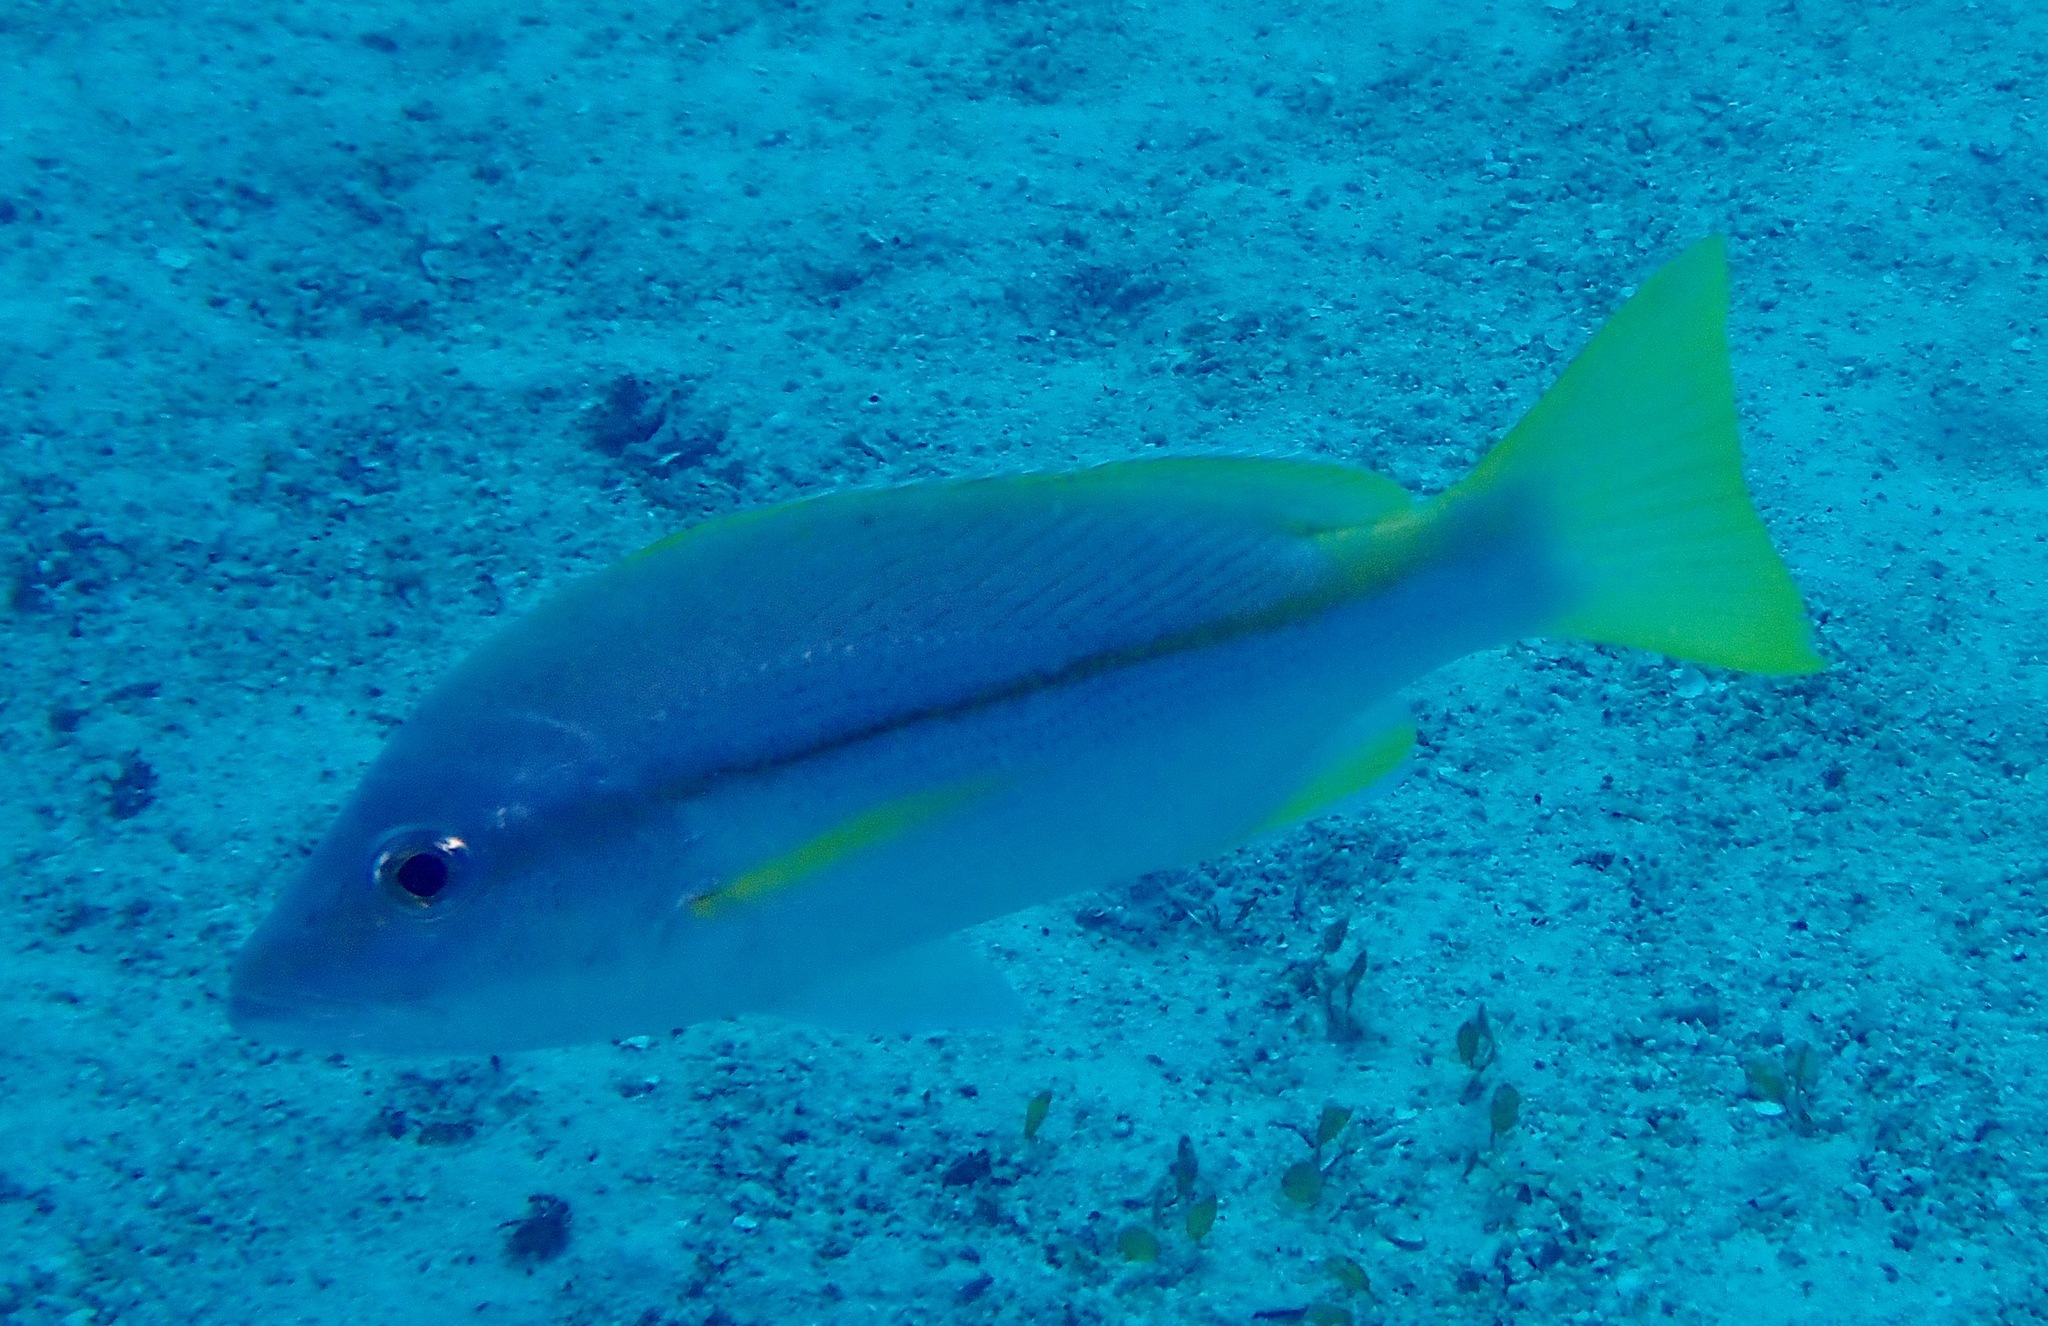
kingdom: Animalia
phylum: Chordata
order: Perciformes
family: Lutjanidae
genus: Lutjanus
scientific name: Lutjanus vitta
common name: Brownstripe red snapper
